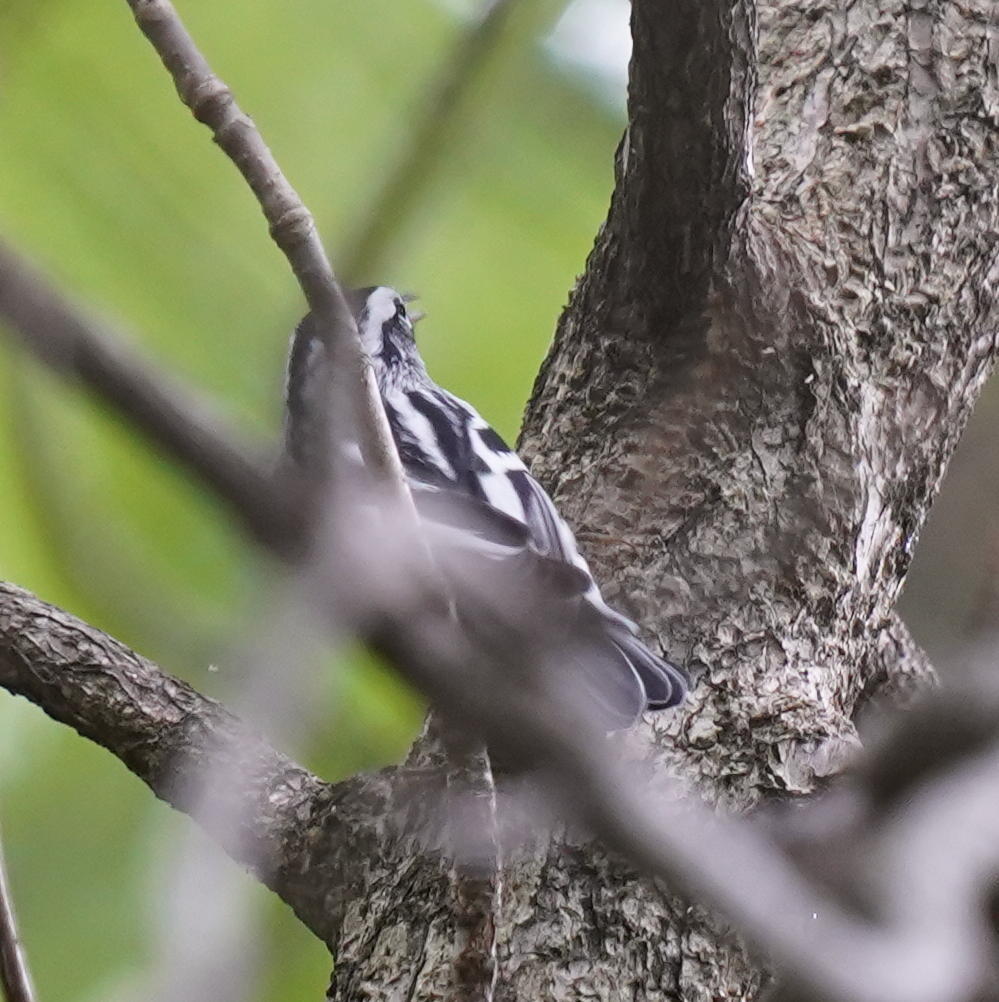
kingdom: Animalia
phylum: Chordata
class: Aves
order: Passeriformes
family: Parulidae
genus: Mniotilta
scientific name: Mniotilta varia
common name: Black-and-white warbler
